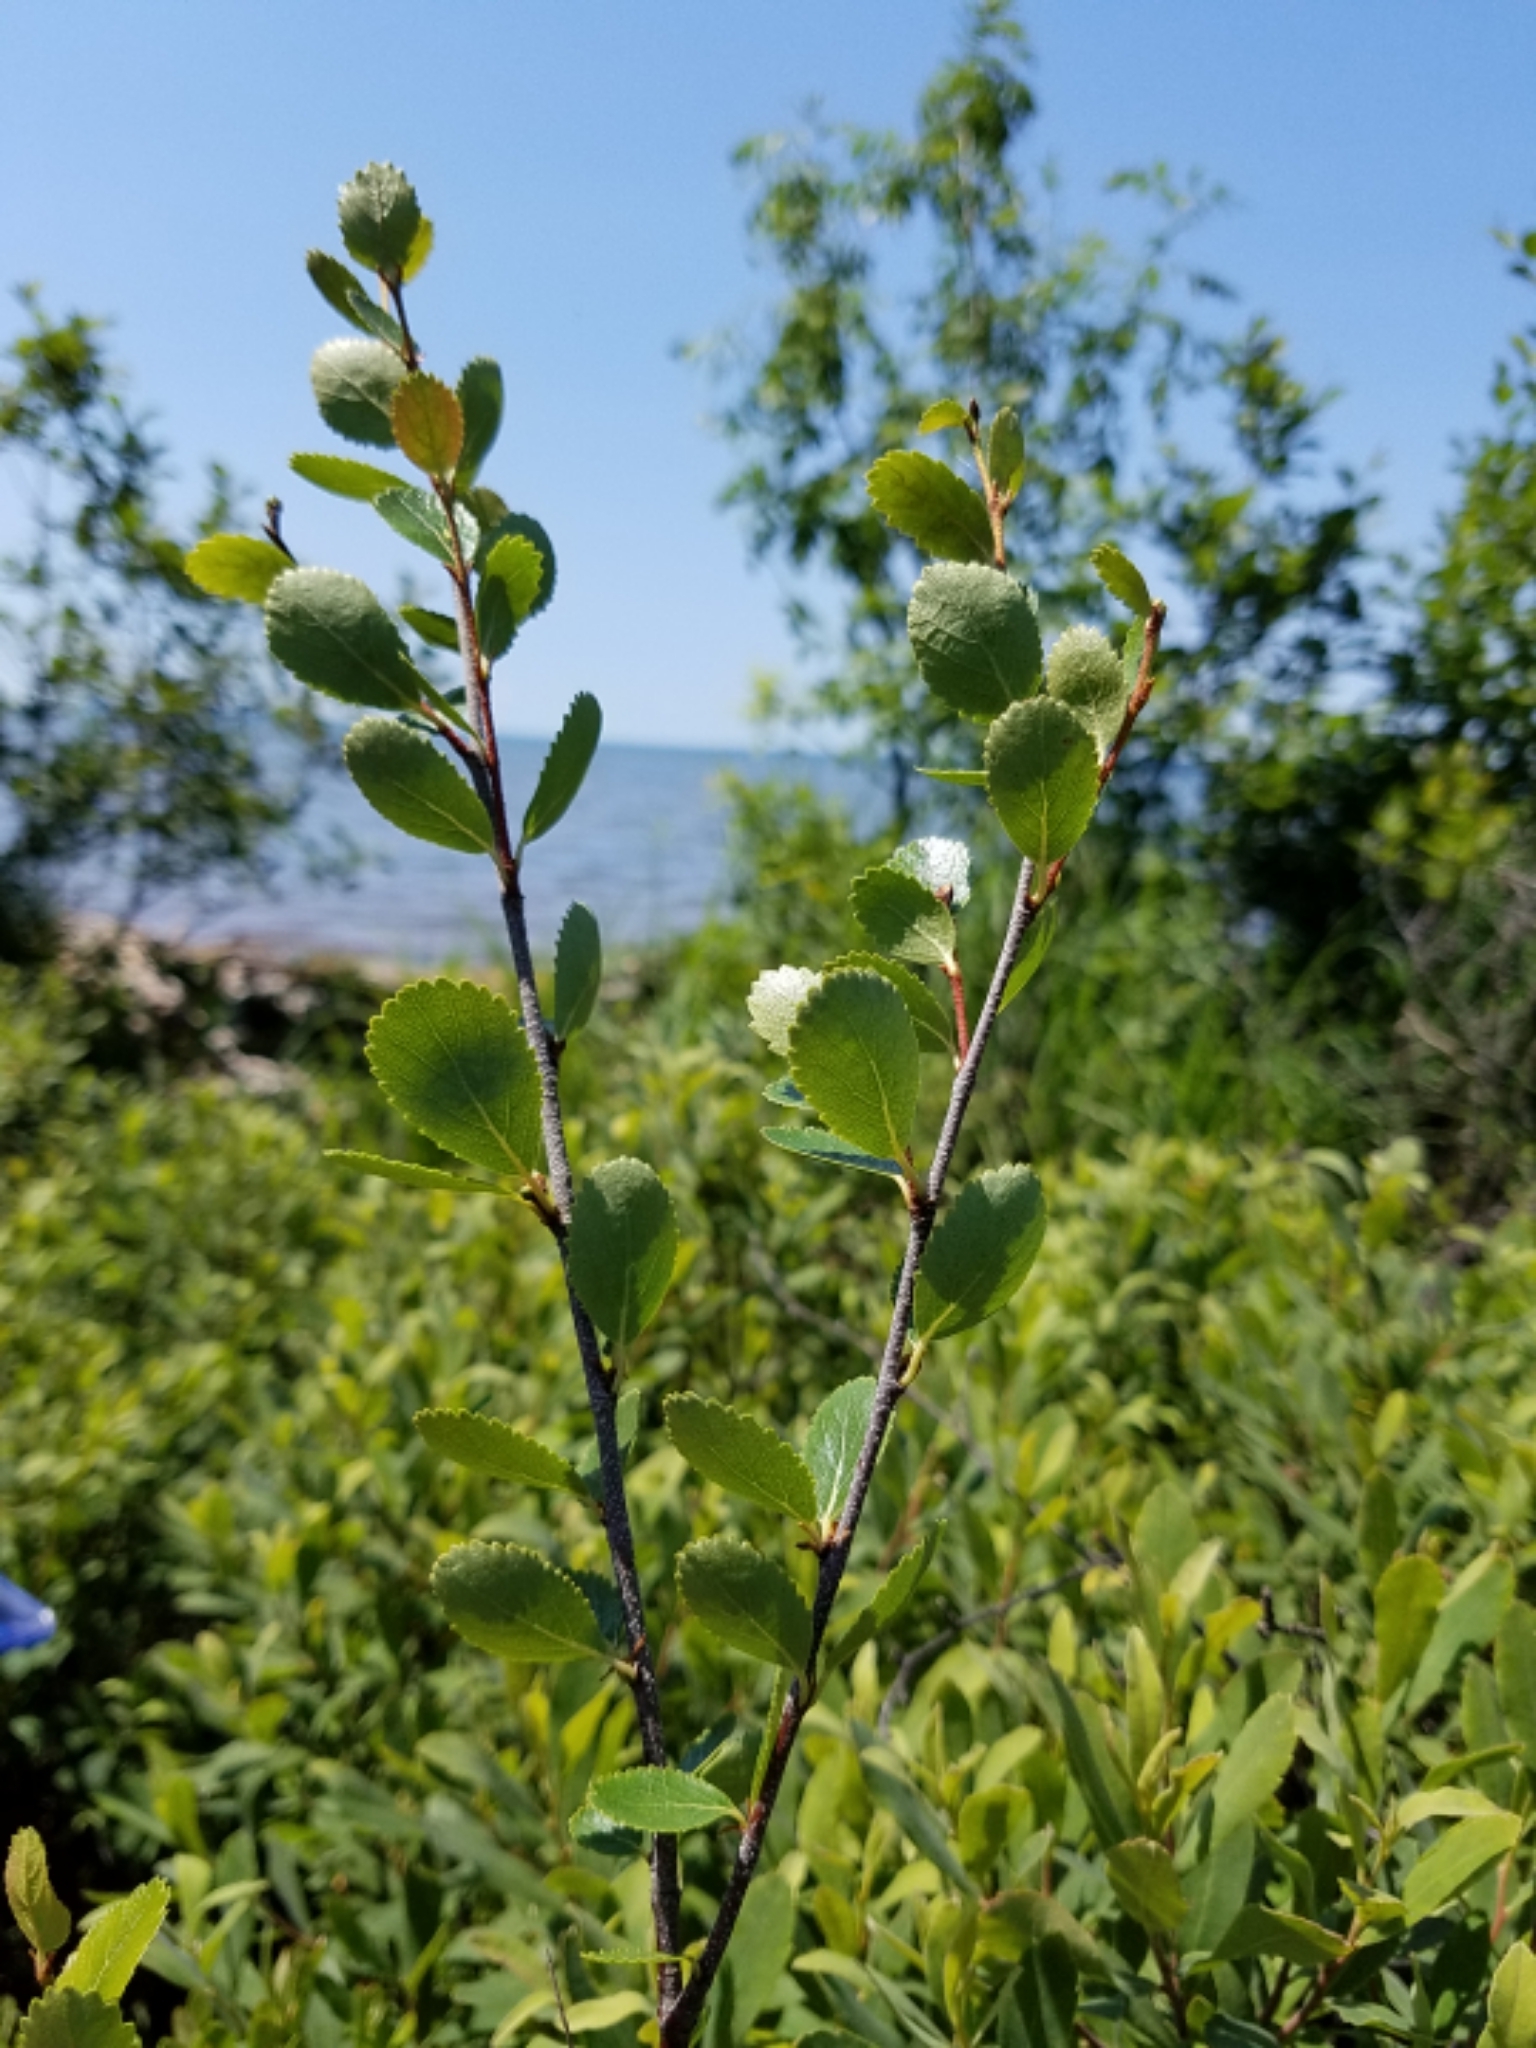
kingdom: Plantae
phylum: Tracheophyta
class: Magnoliopsida
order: Fagales
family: Betulaceae
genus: Betula
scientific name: Betula pumila
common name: Bog birch
